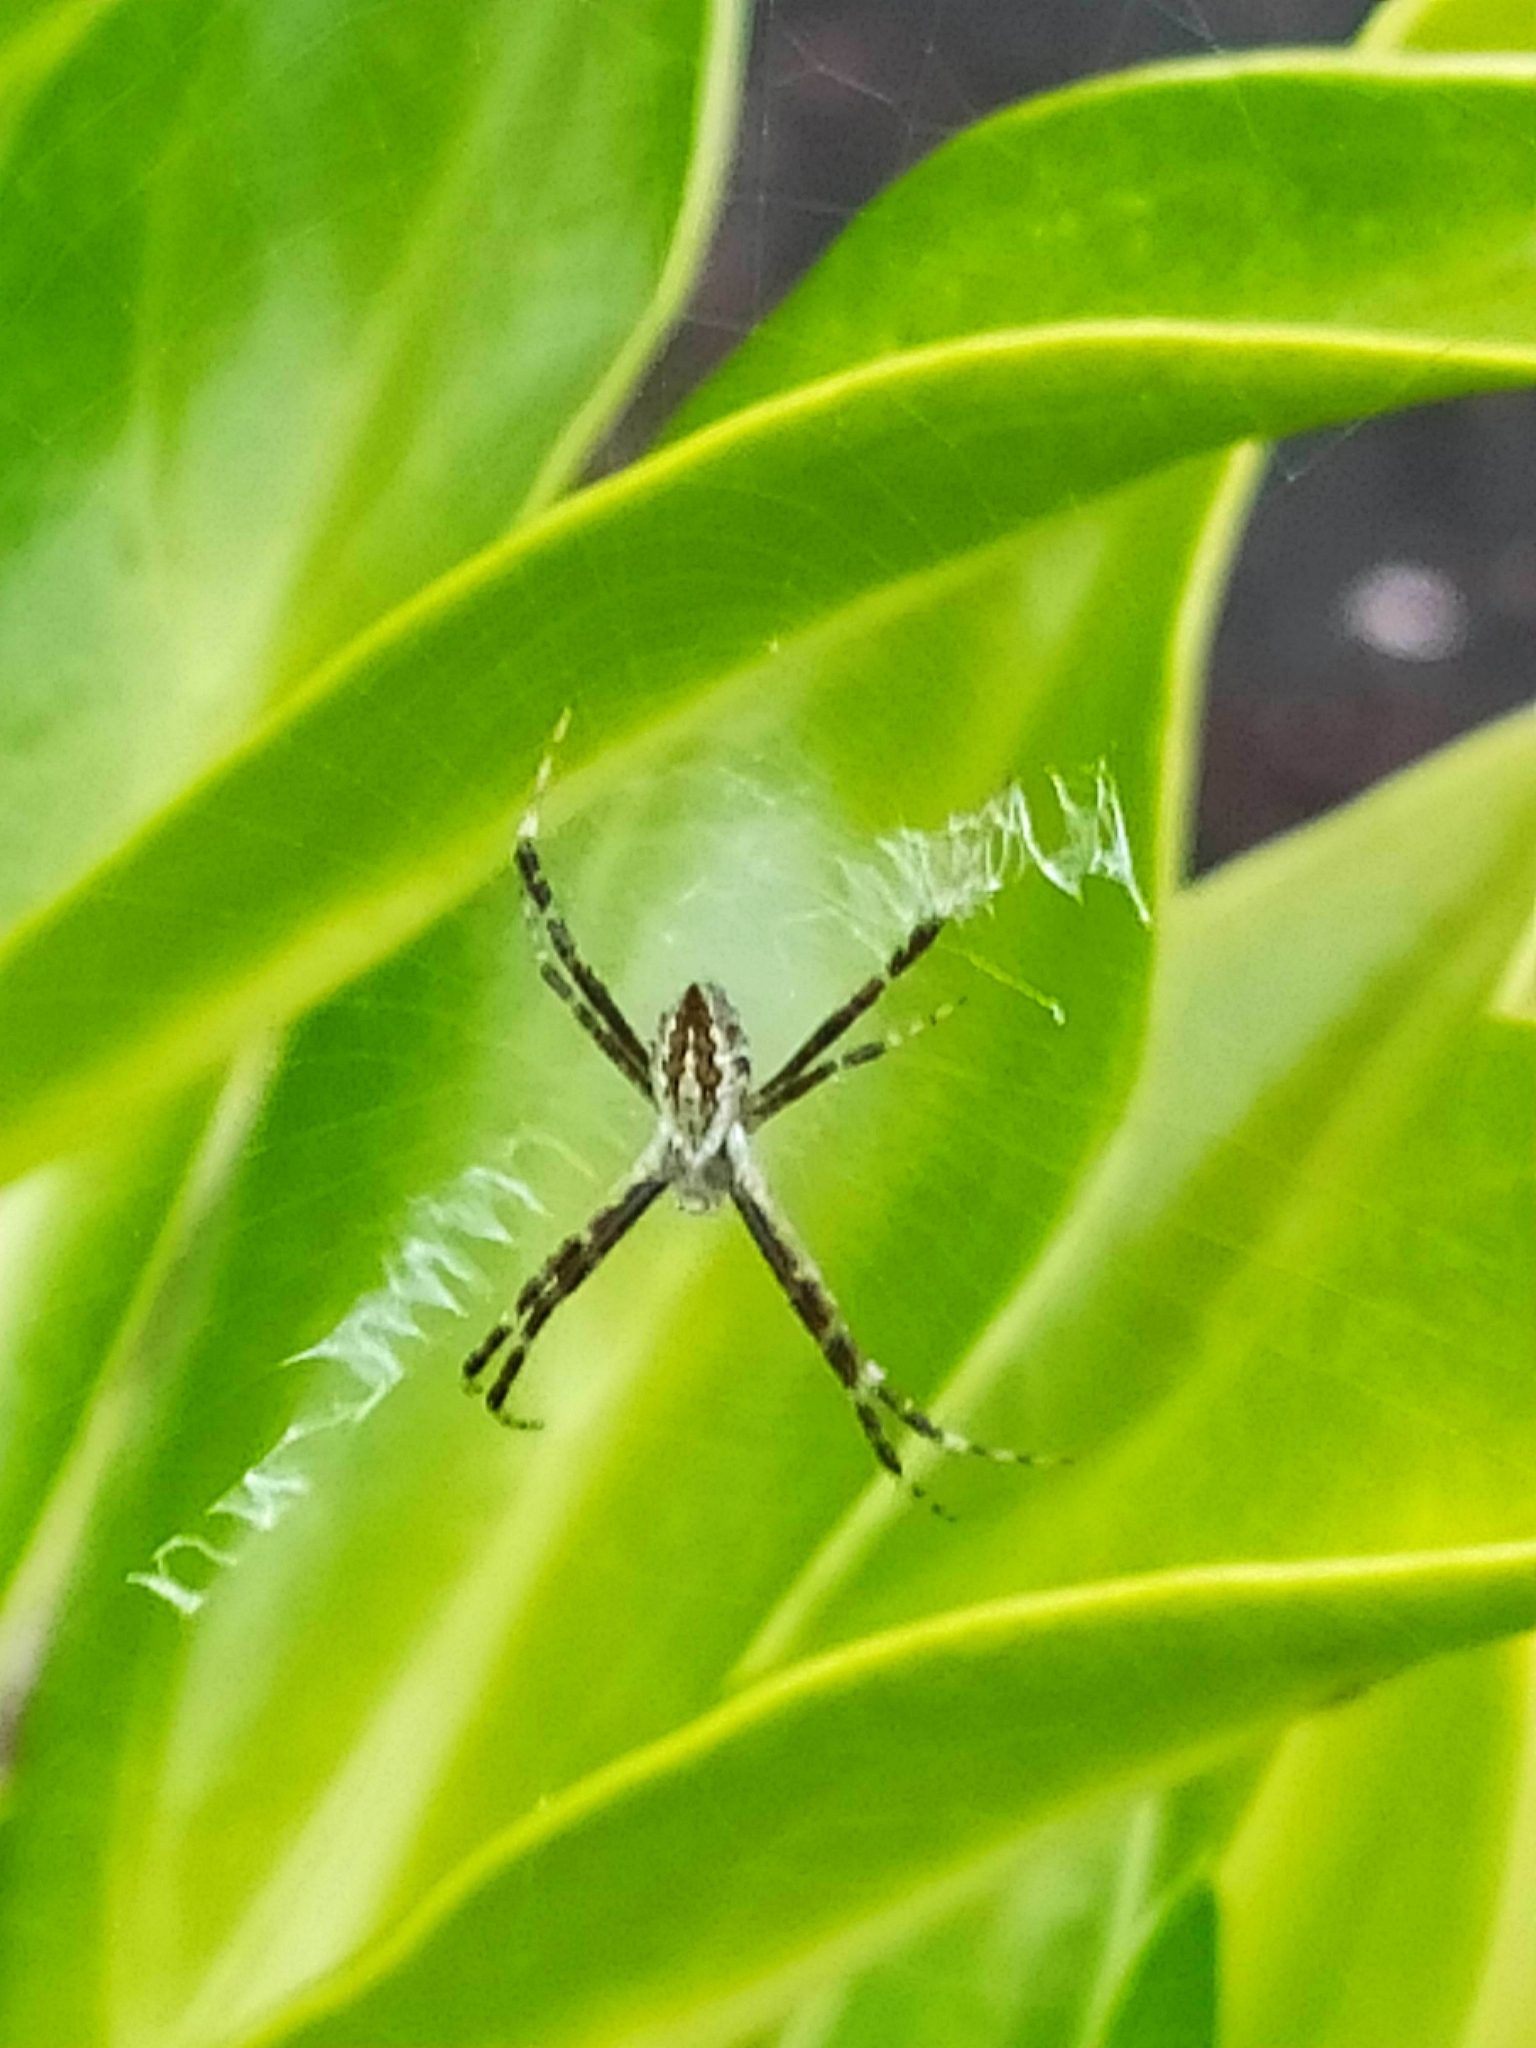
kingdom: Animalia
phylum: Arthropoda
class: Arachnida
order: Araneae
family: Araneidae
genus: Argiope
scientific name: Argiope argentata
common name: Orb weavers
